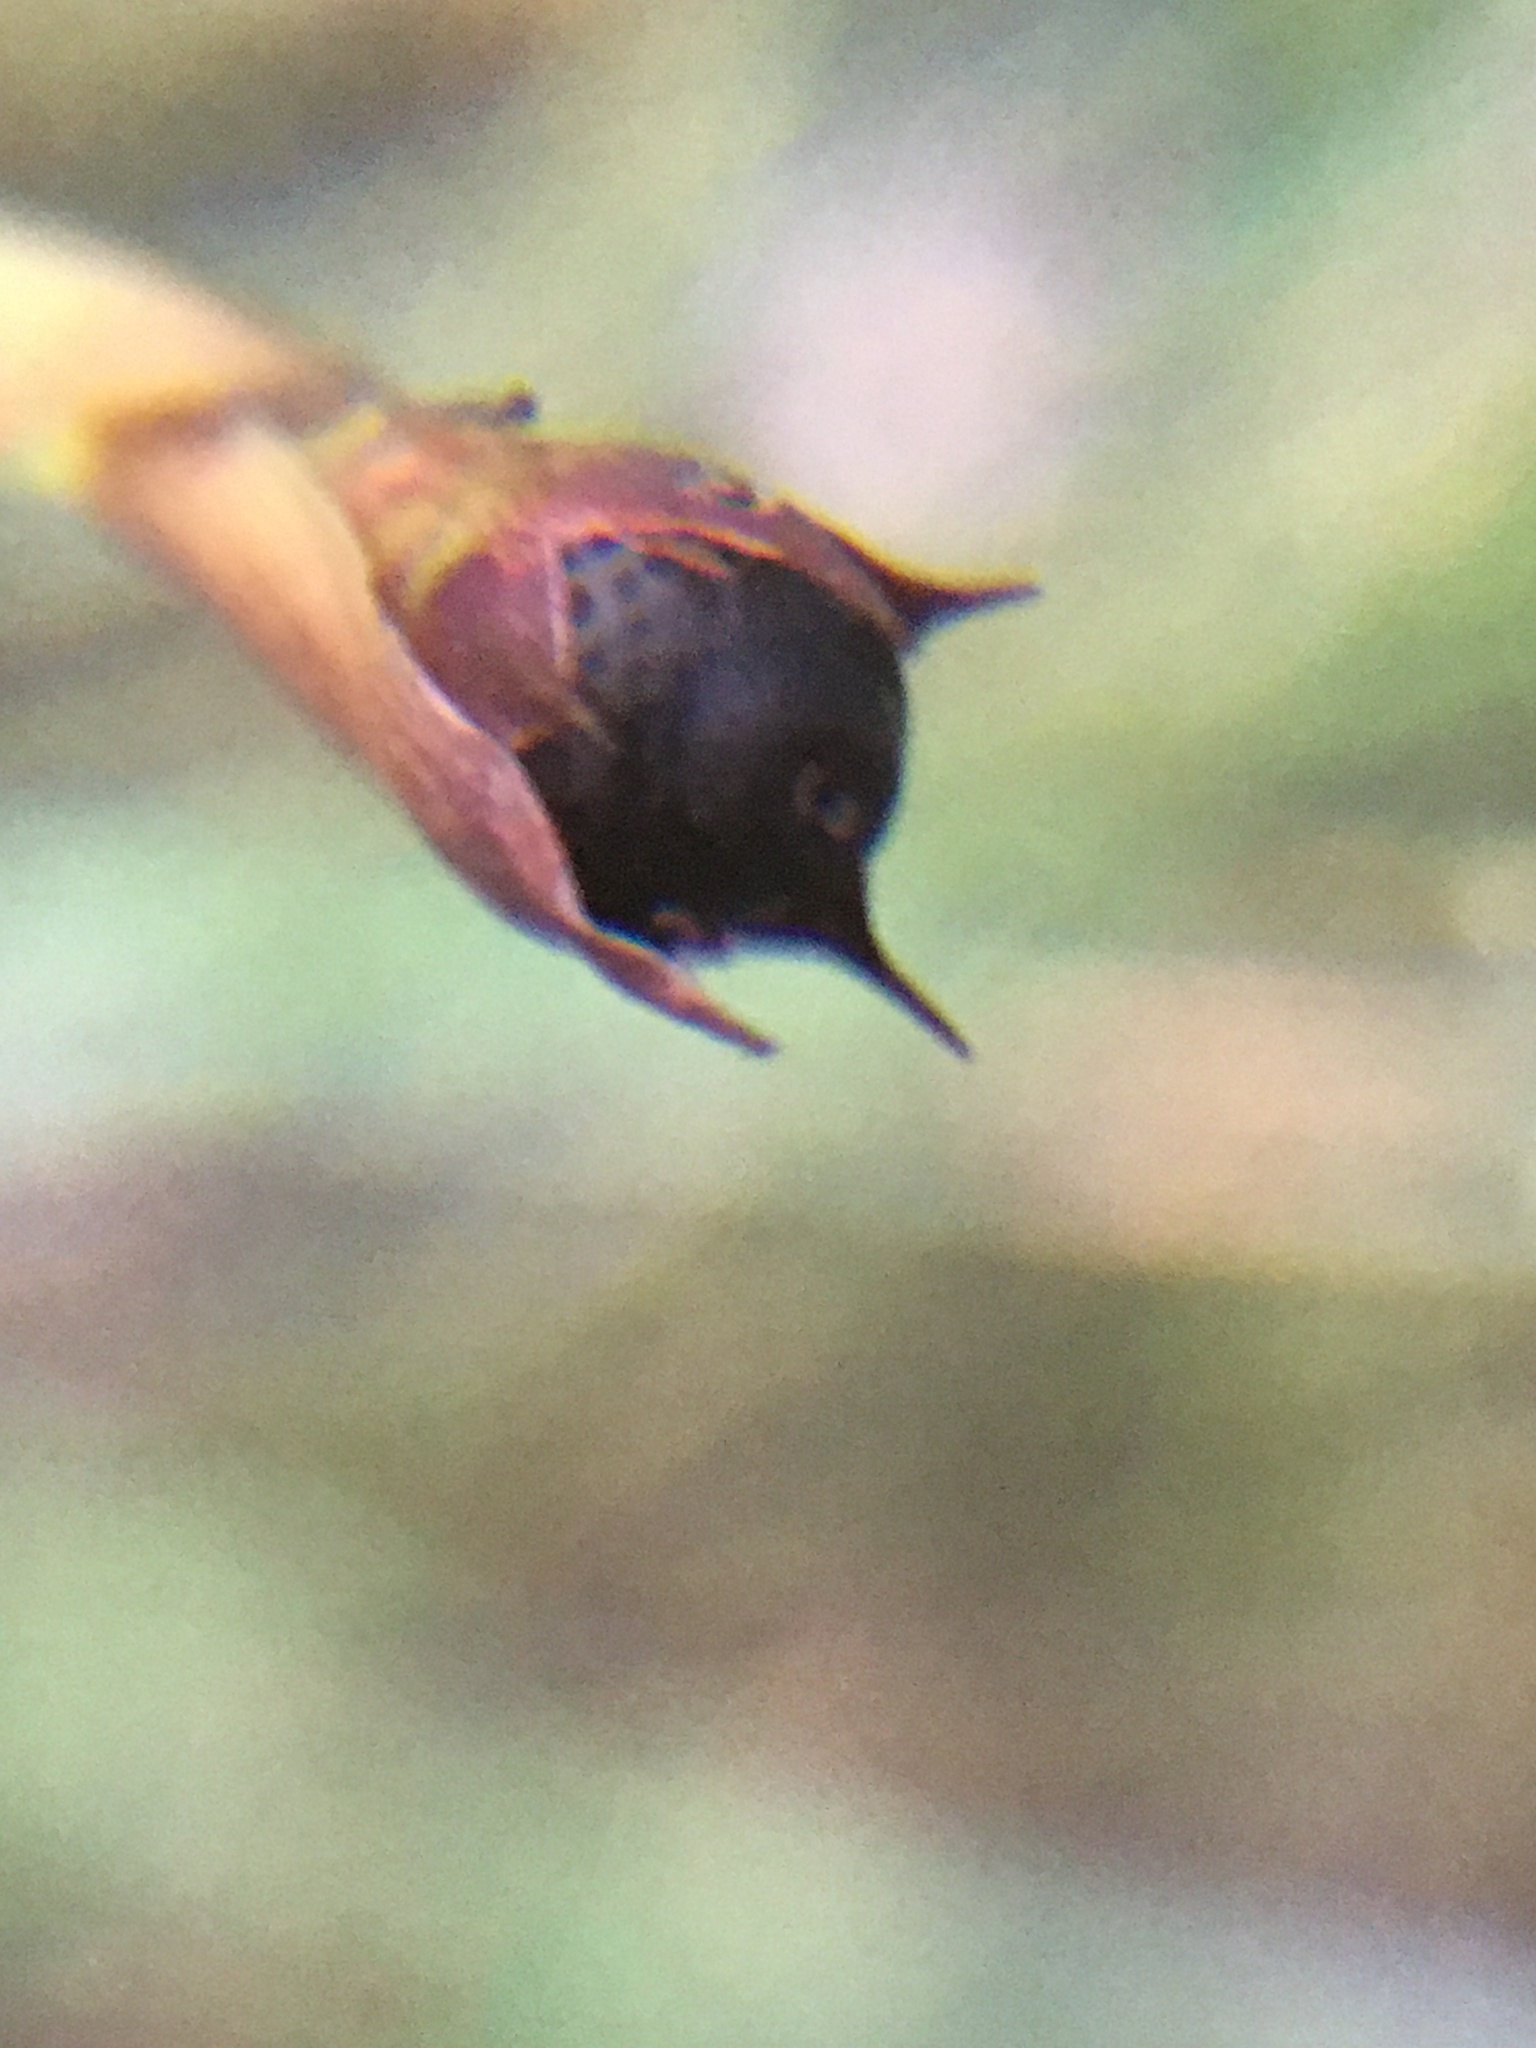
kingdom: Plantae
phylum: Tracheophyta
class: Liliopsida
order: Poales
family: Restionaceae
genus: Willdenowia
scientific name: Willdenowia sulcata
